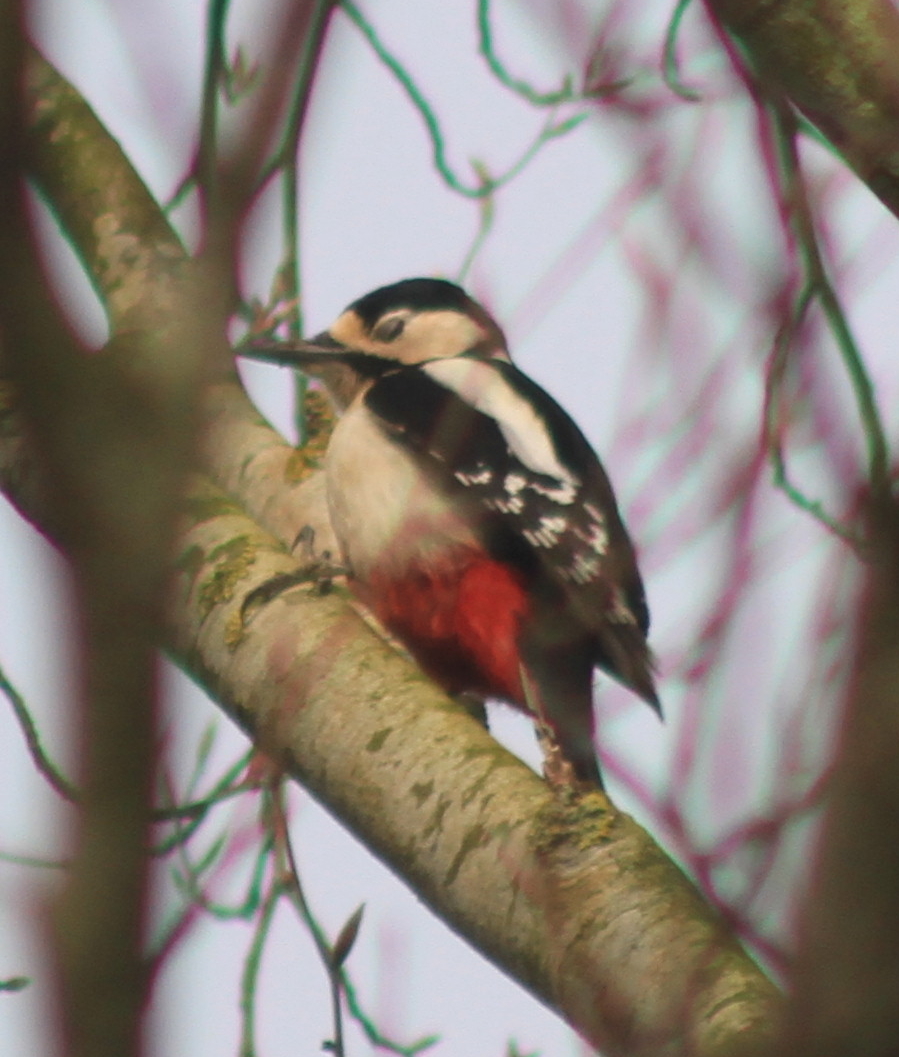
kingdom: Animalia
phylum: Chordata
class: Aves
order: Piciformes
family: Picidae
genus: Dendrocopos
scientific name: Dendrocopos major
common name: Great spotted woodpecker
